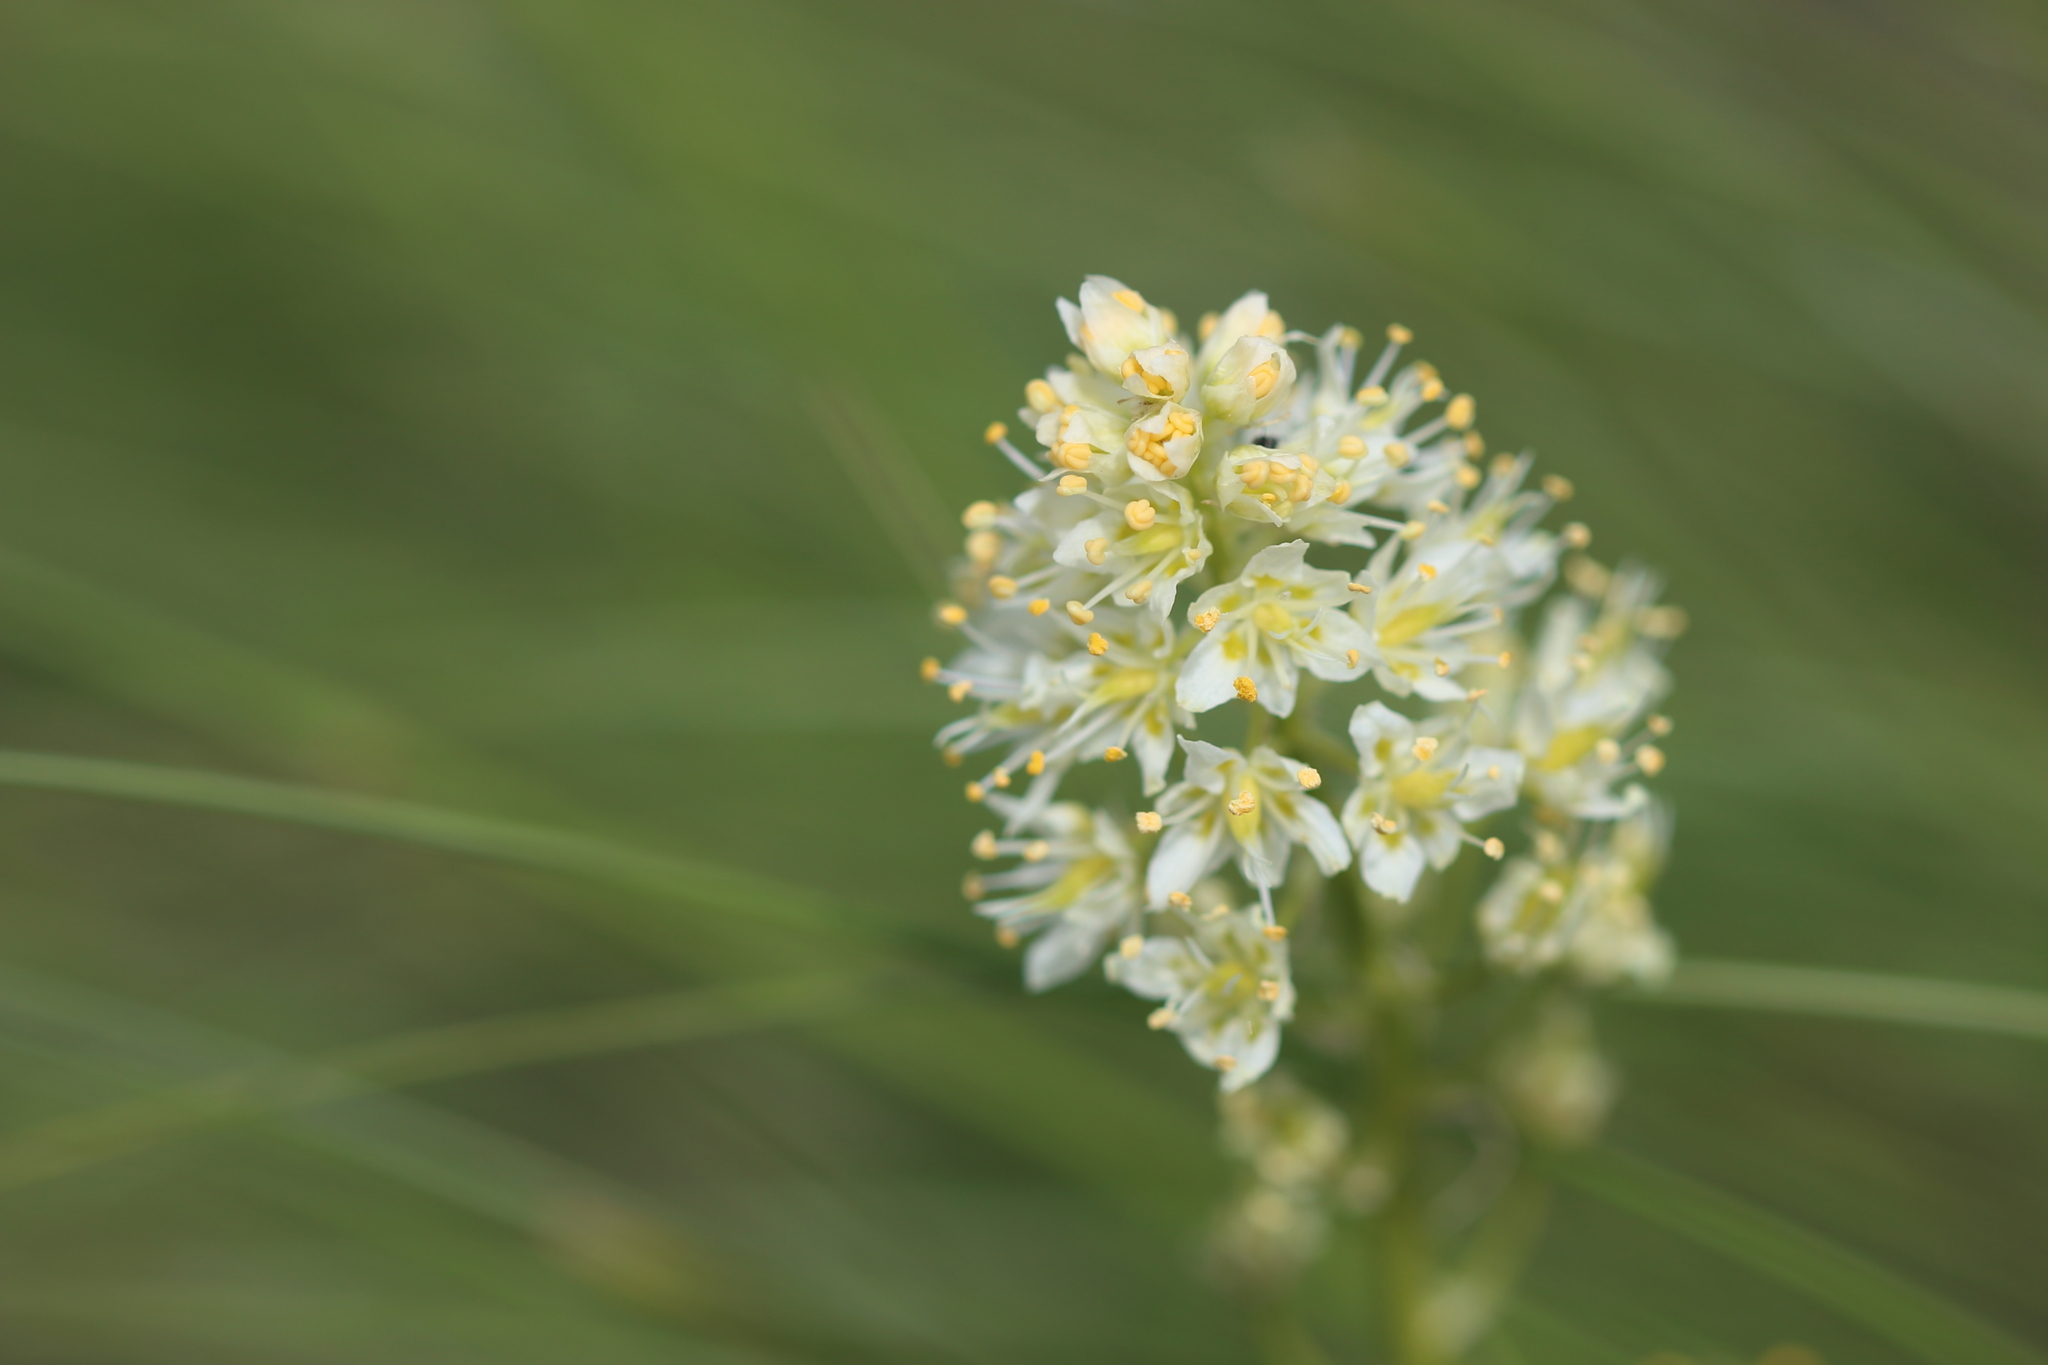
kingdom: Plantae
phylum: Tracheophyta
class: Liliopsida
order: Liliales
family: Melanthiaceae
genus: Toxicoscordion
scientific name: Toxicoscordion venenosum
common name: Meadow death camas
